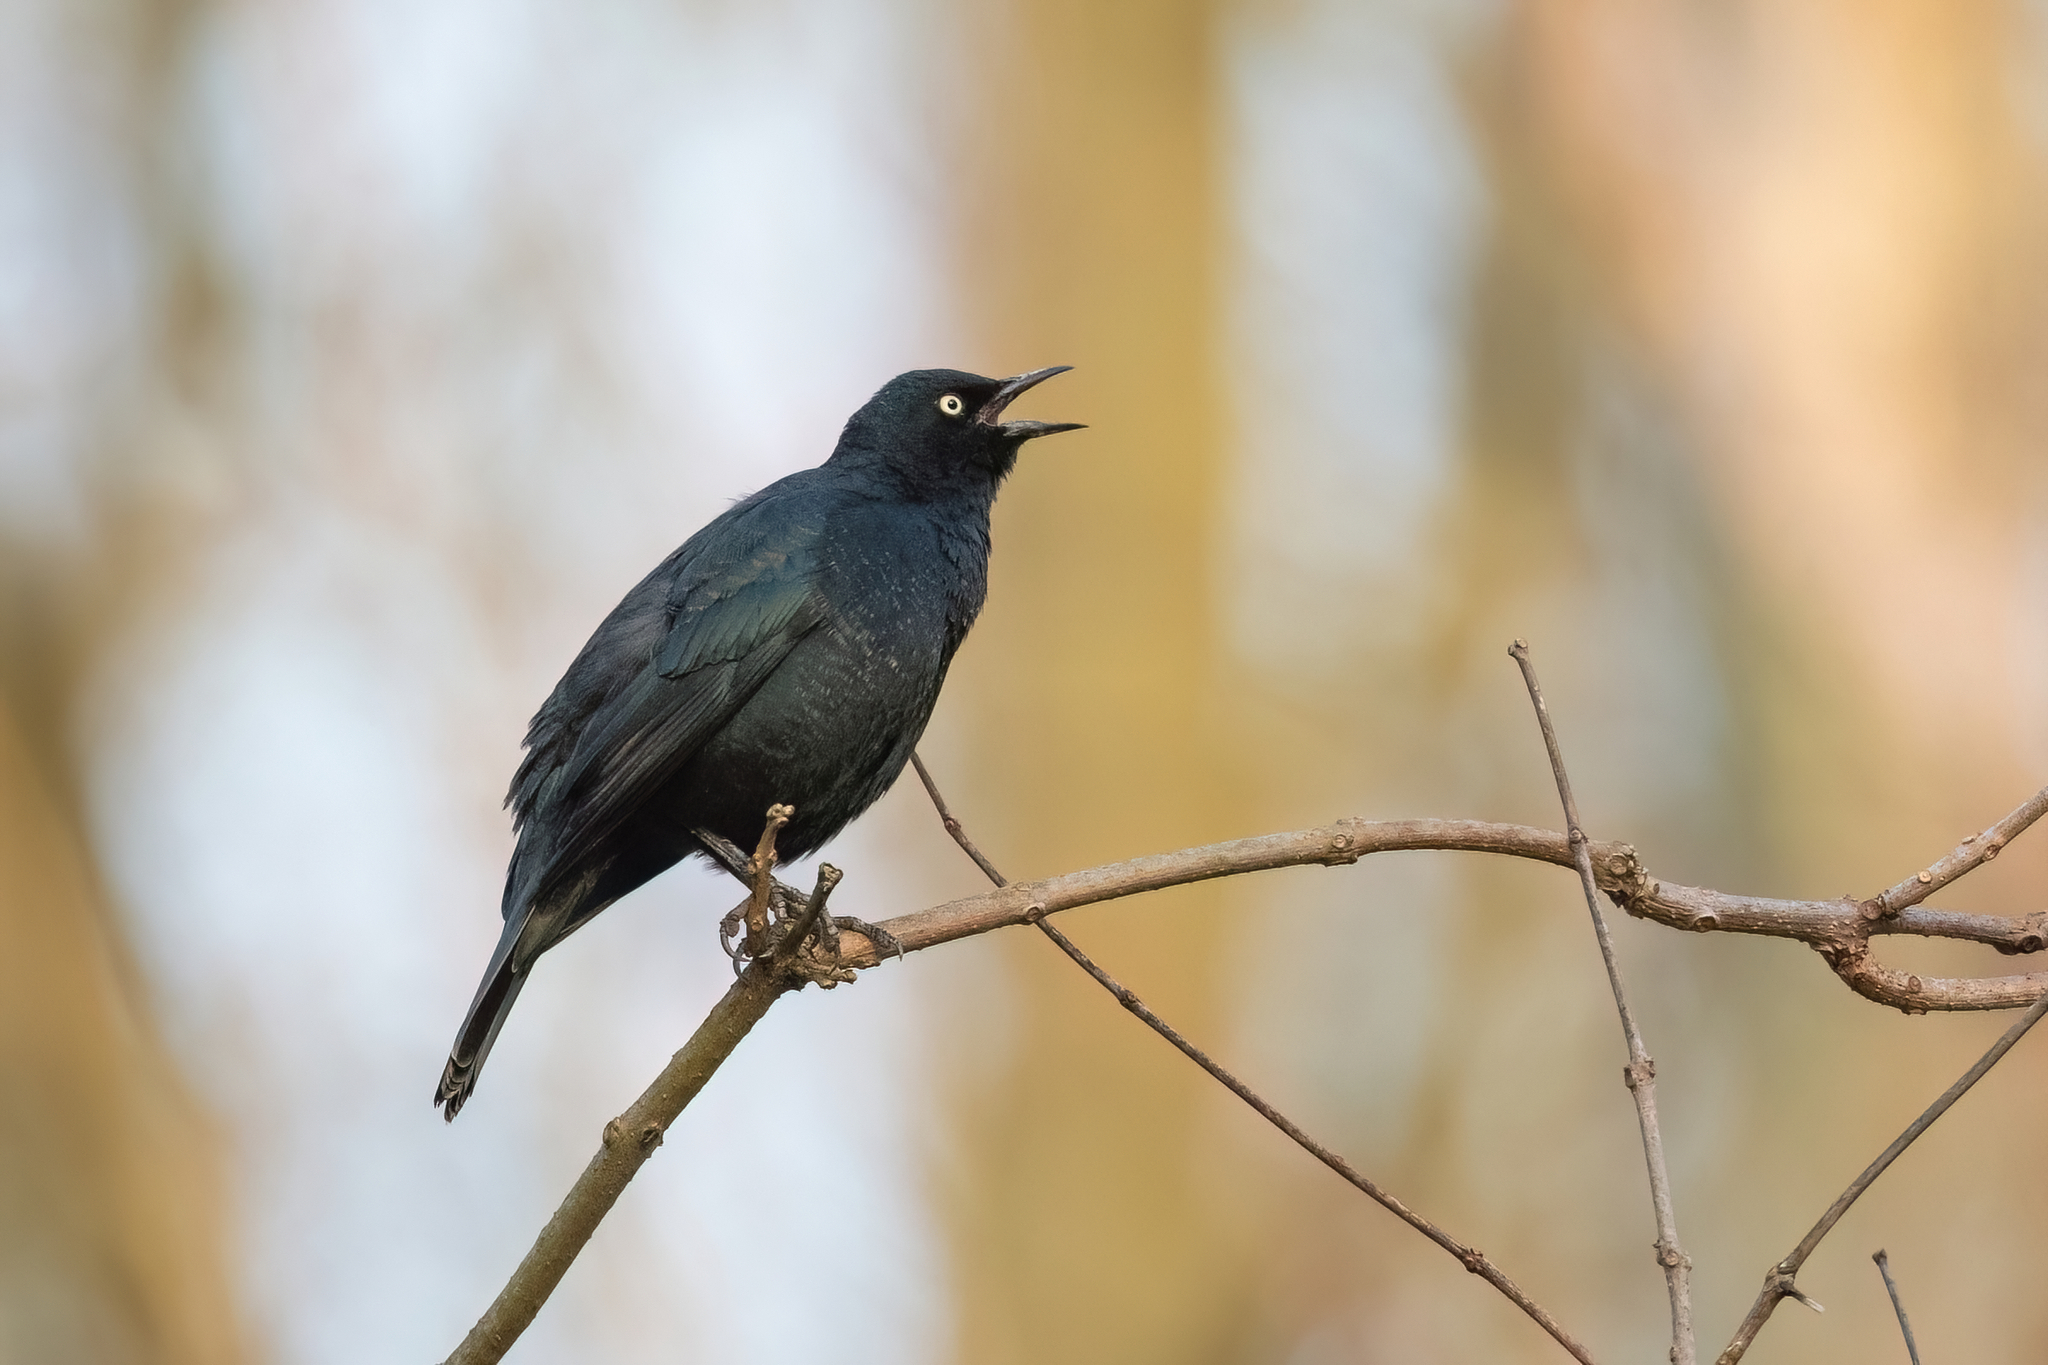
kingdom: Animalia
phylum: Chordata
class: Aves
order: Passeriformes
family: Icteridae
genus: Euphagus
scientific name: Euphagus carolinus
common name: Rusty blackbird
